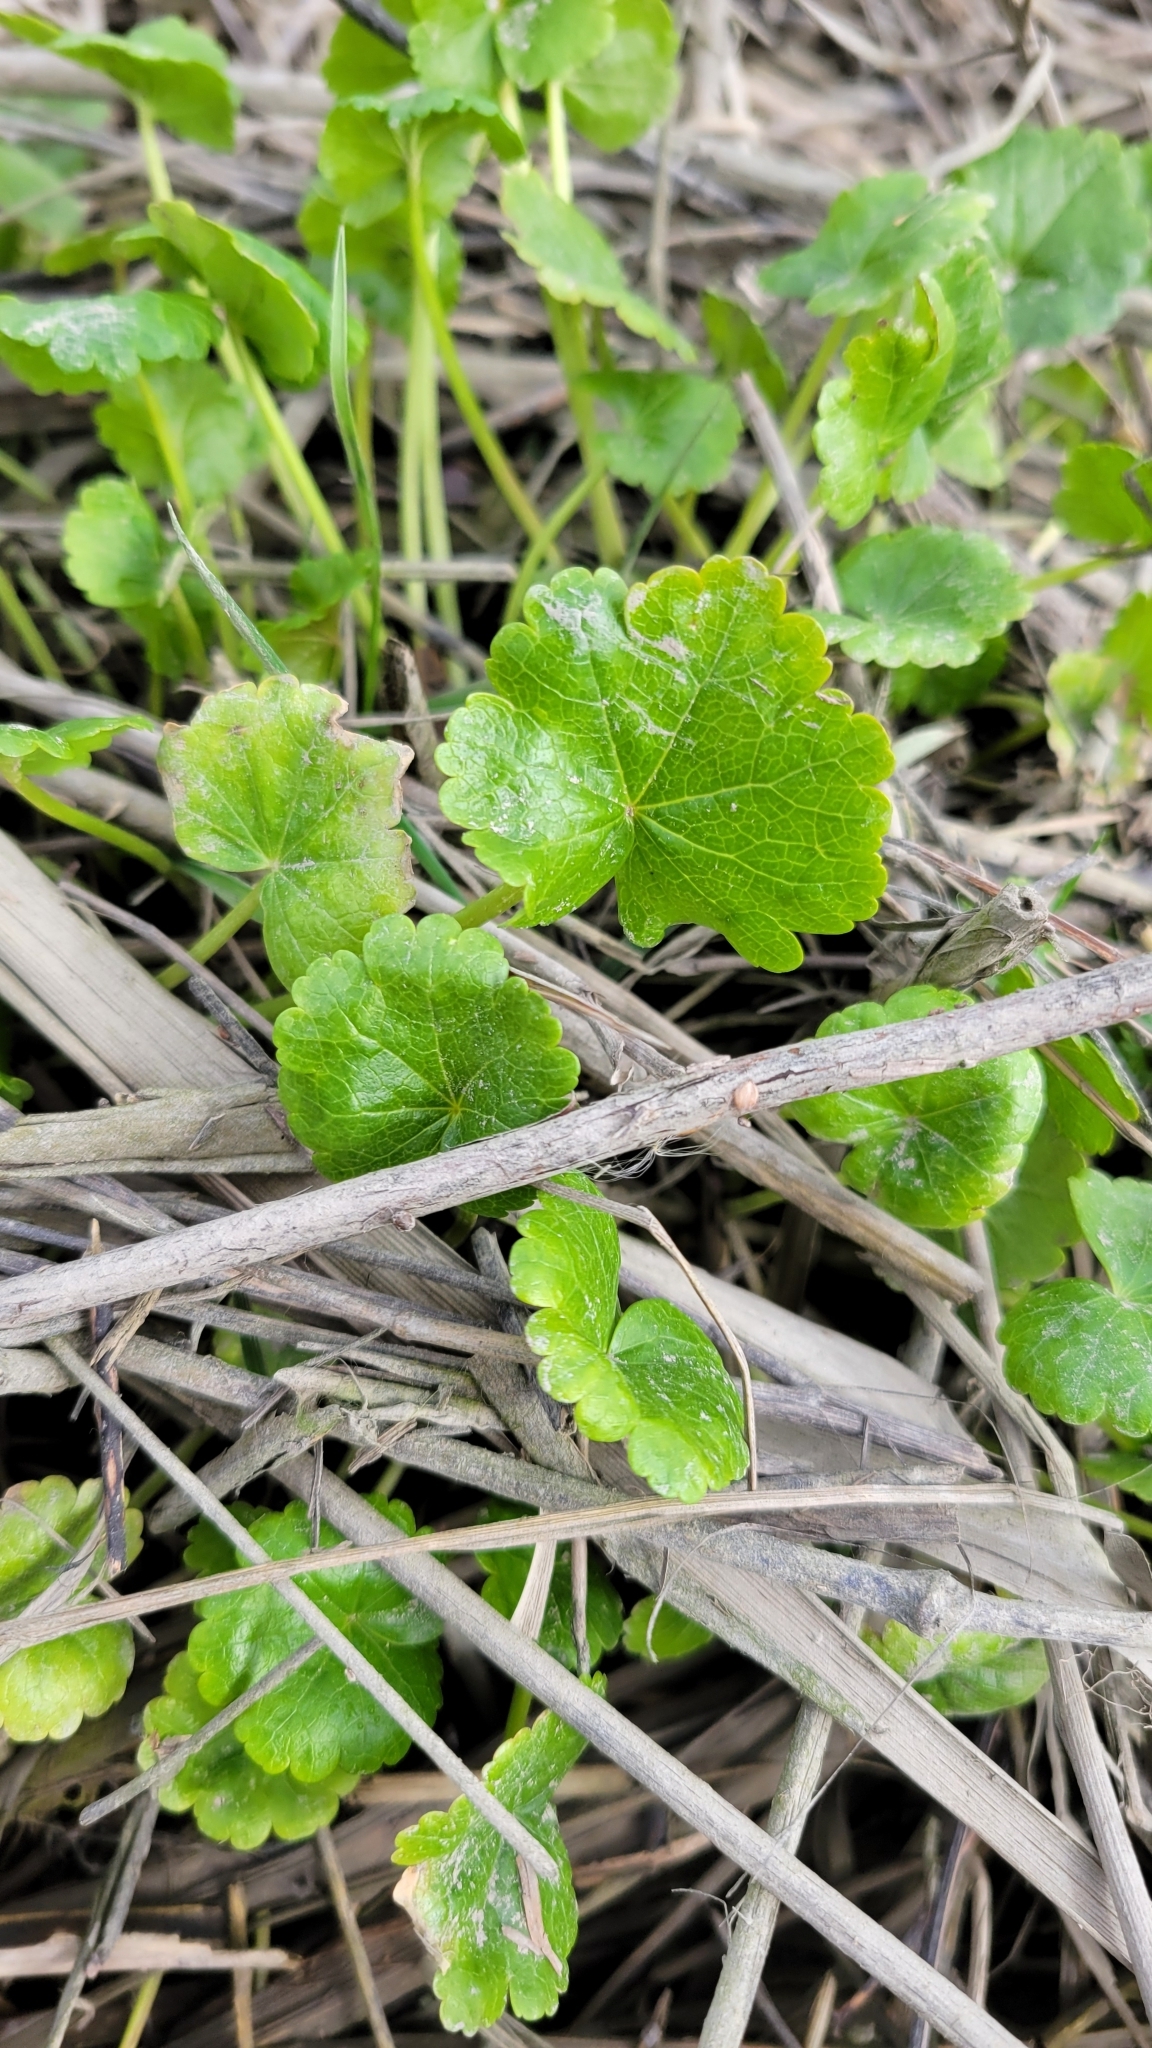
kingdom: Plantae
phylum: Tracheophyta
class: Magnoliopsida
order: Malvales
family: Malvaceae
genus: Sidalcea
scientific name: Sidalcea hendersonii
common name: Mallow
